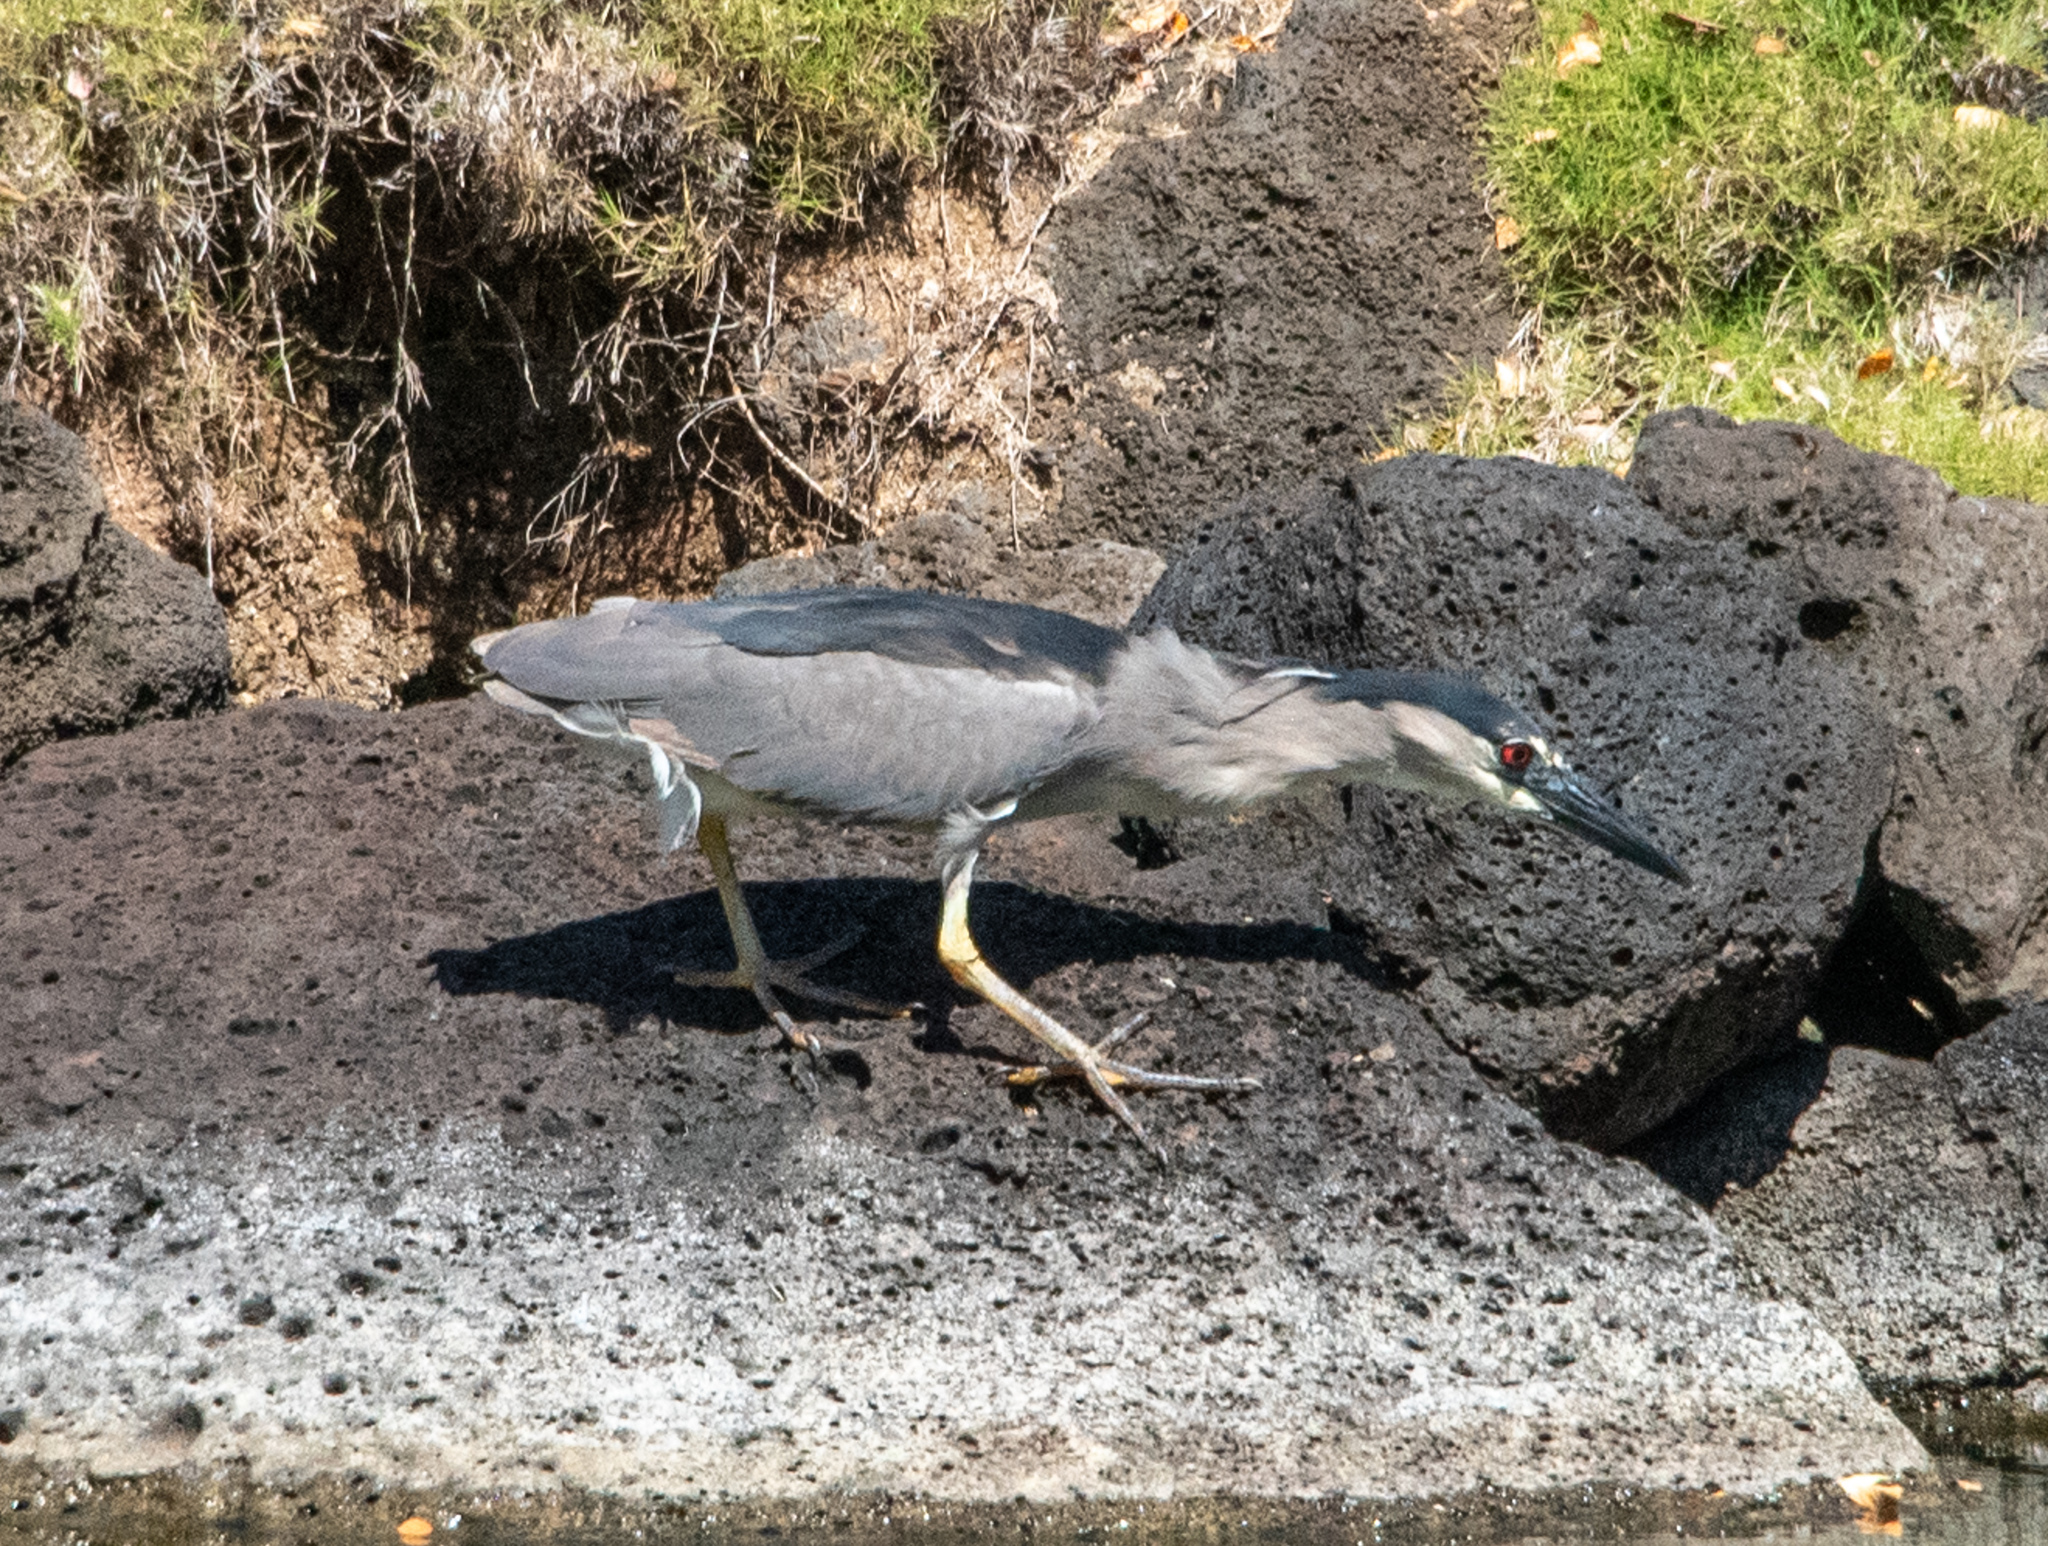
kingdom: Animalia
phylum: Chordata
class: Aves
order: Pelecaniformes
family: Ardeidae
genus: Nycticorax
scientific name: Nycticorax nycticorax
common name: Black-crowned night heron
